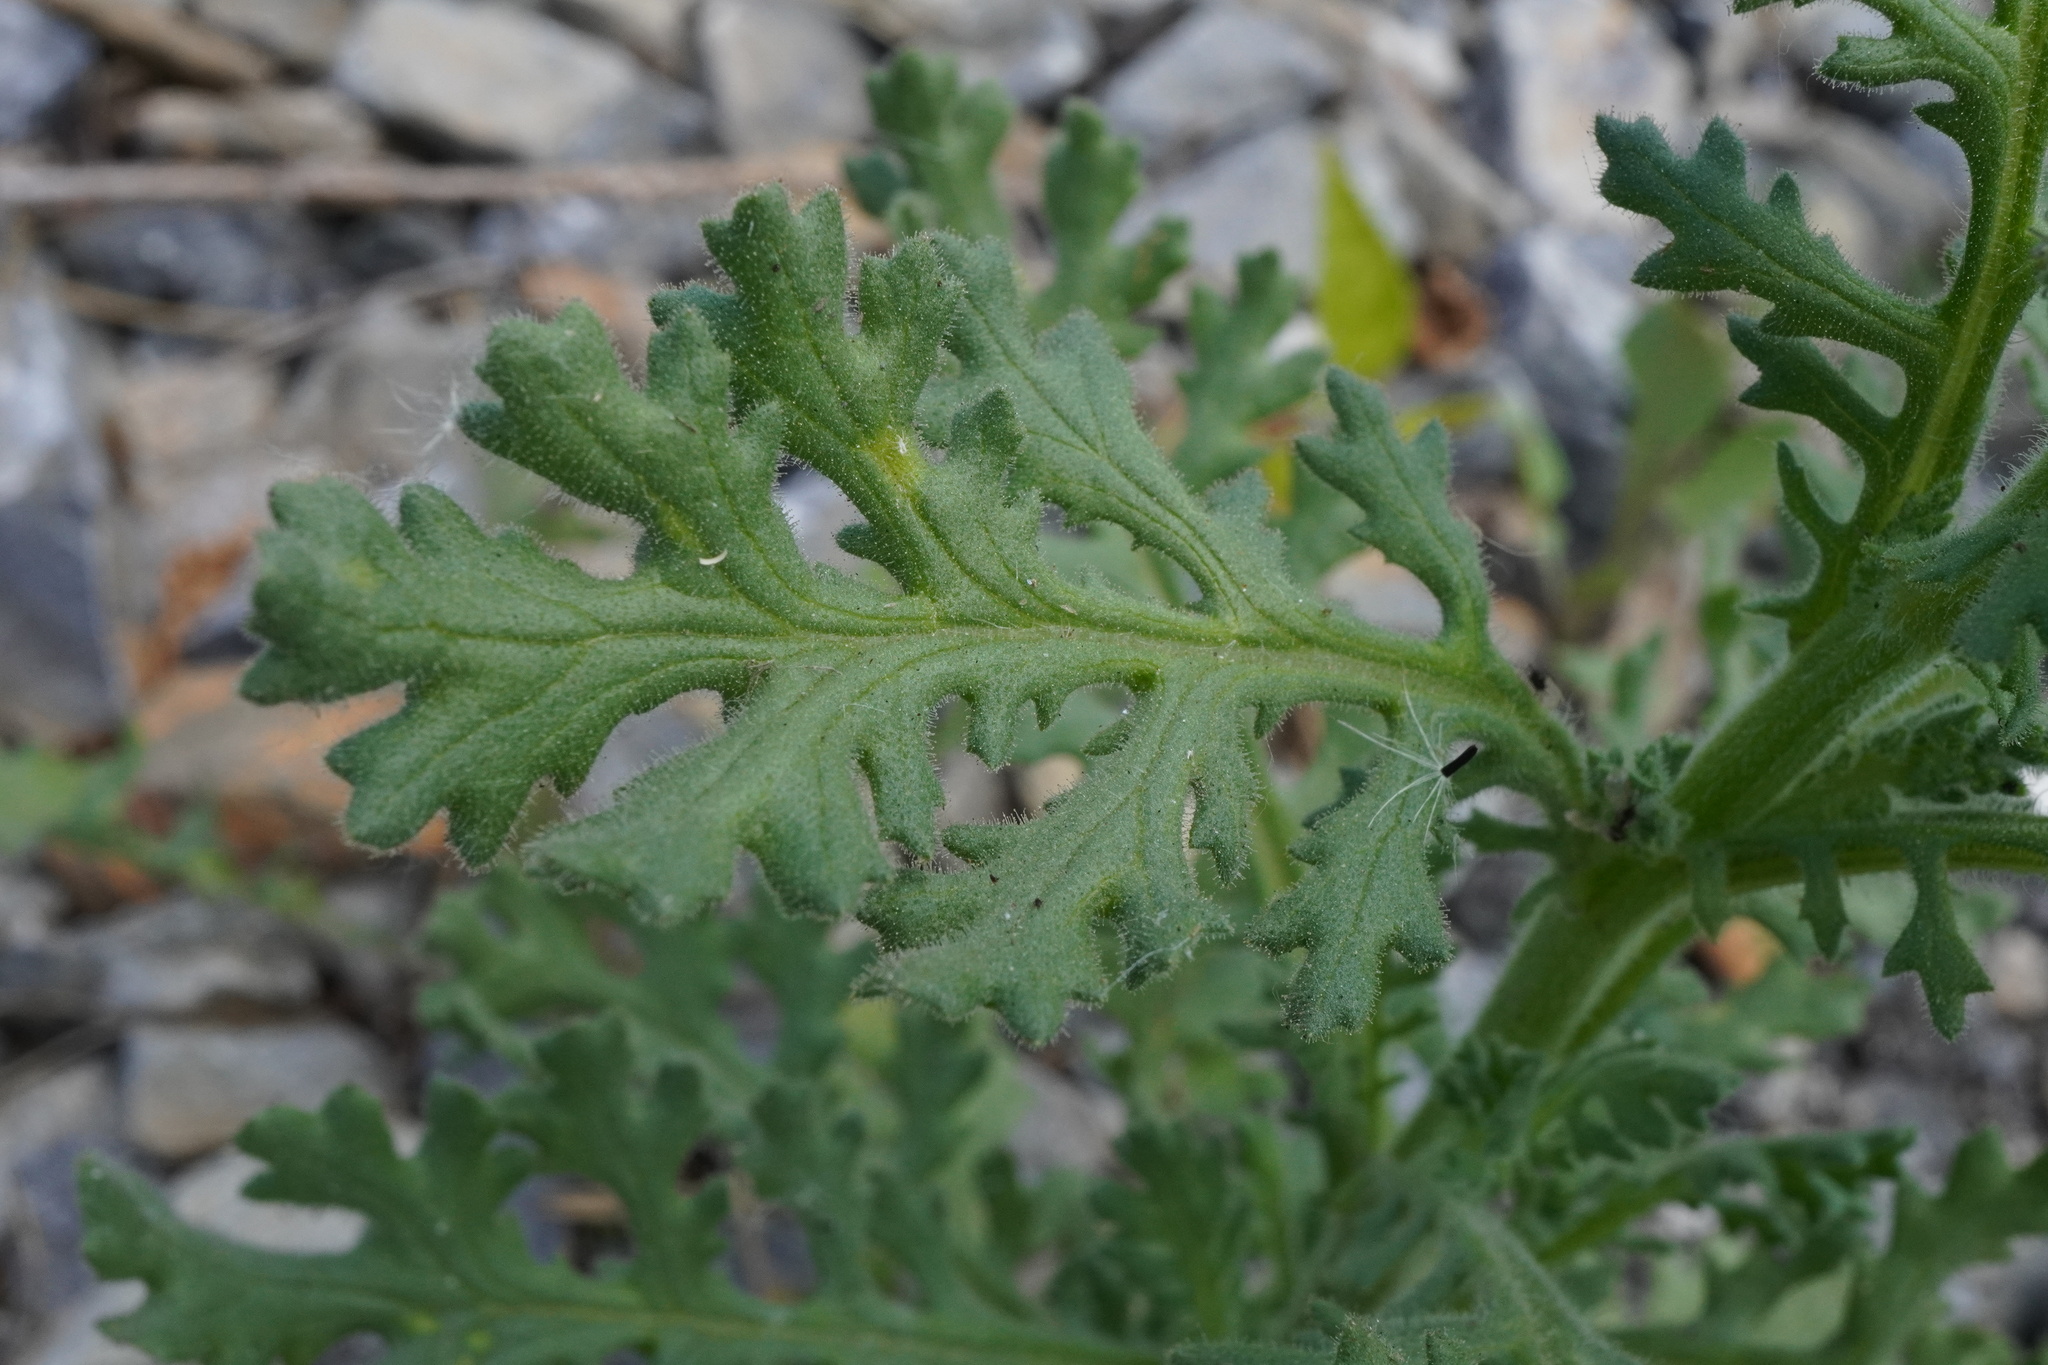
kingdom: Plantae
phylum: Tracheophyta
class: Magnoliopsida
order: Asterales
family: Asteraceae
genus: Senecio
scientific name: Senecio viscosus
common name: Sticky groundsel
